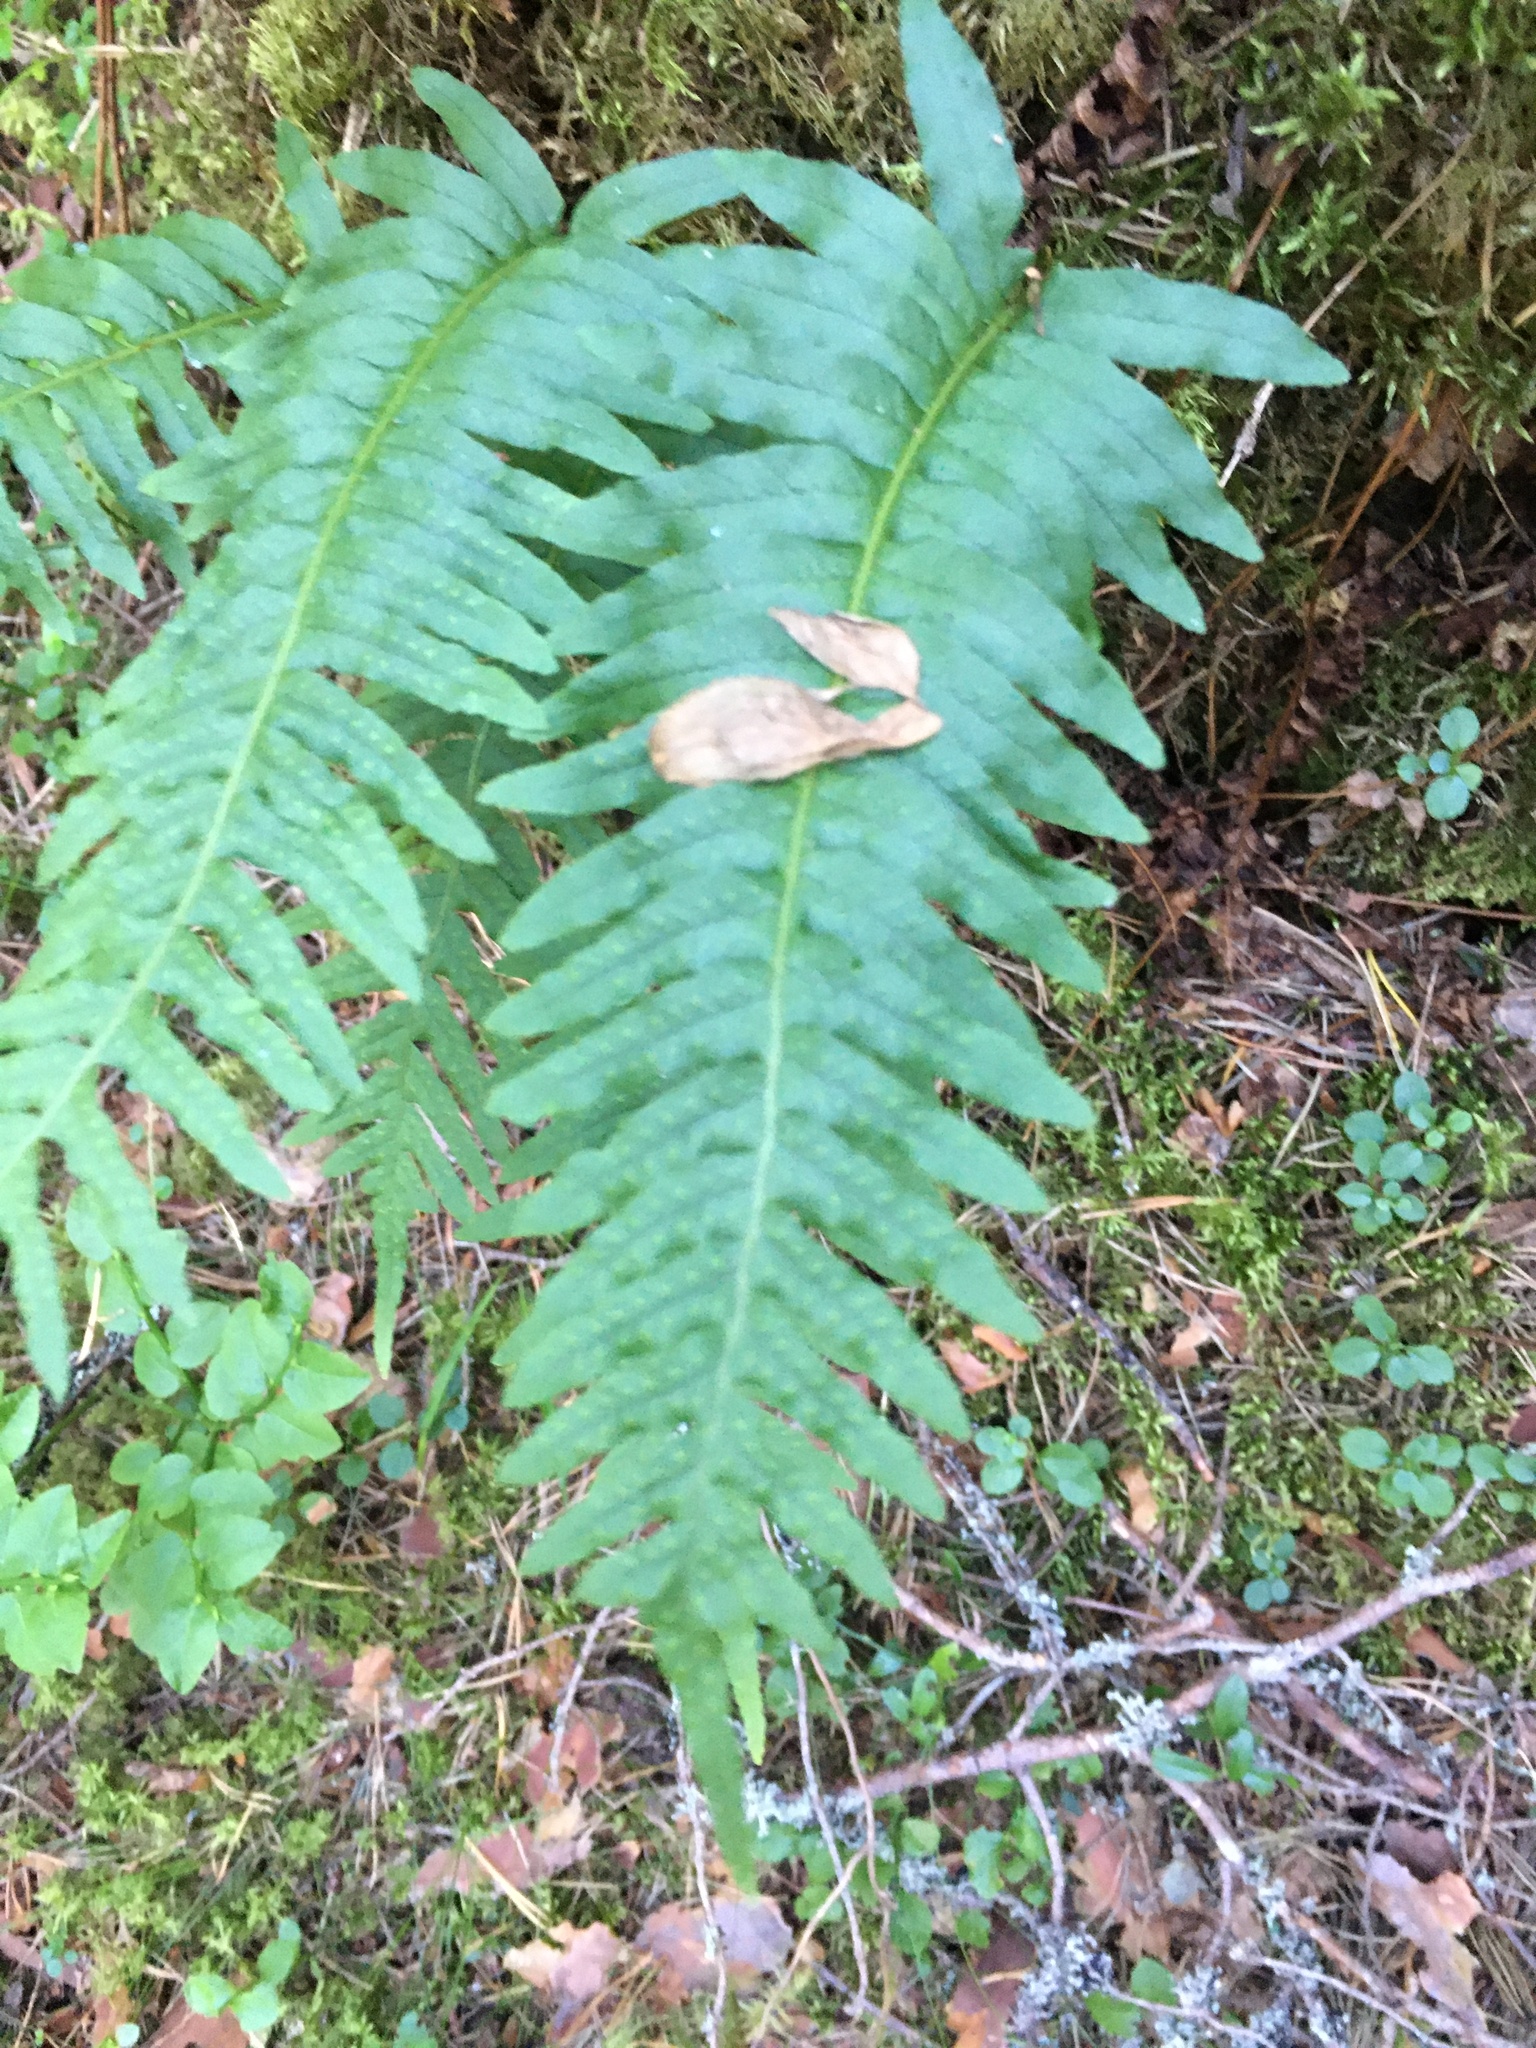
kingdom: Plantae
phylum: Tracheophyta
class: Polypodiopsida
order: Polypodiales
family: Polypodiaceae
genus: Polypodium
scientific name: Polypodium vulgare
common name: Common polypody
